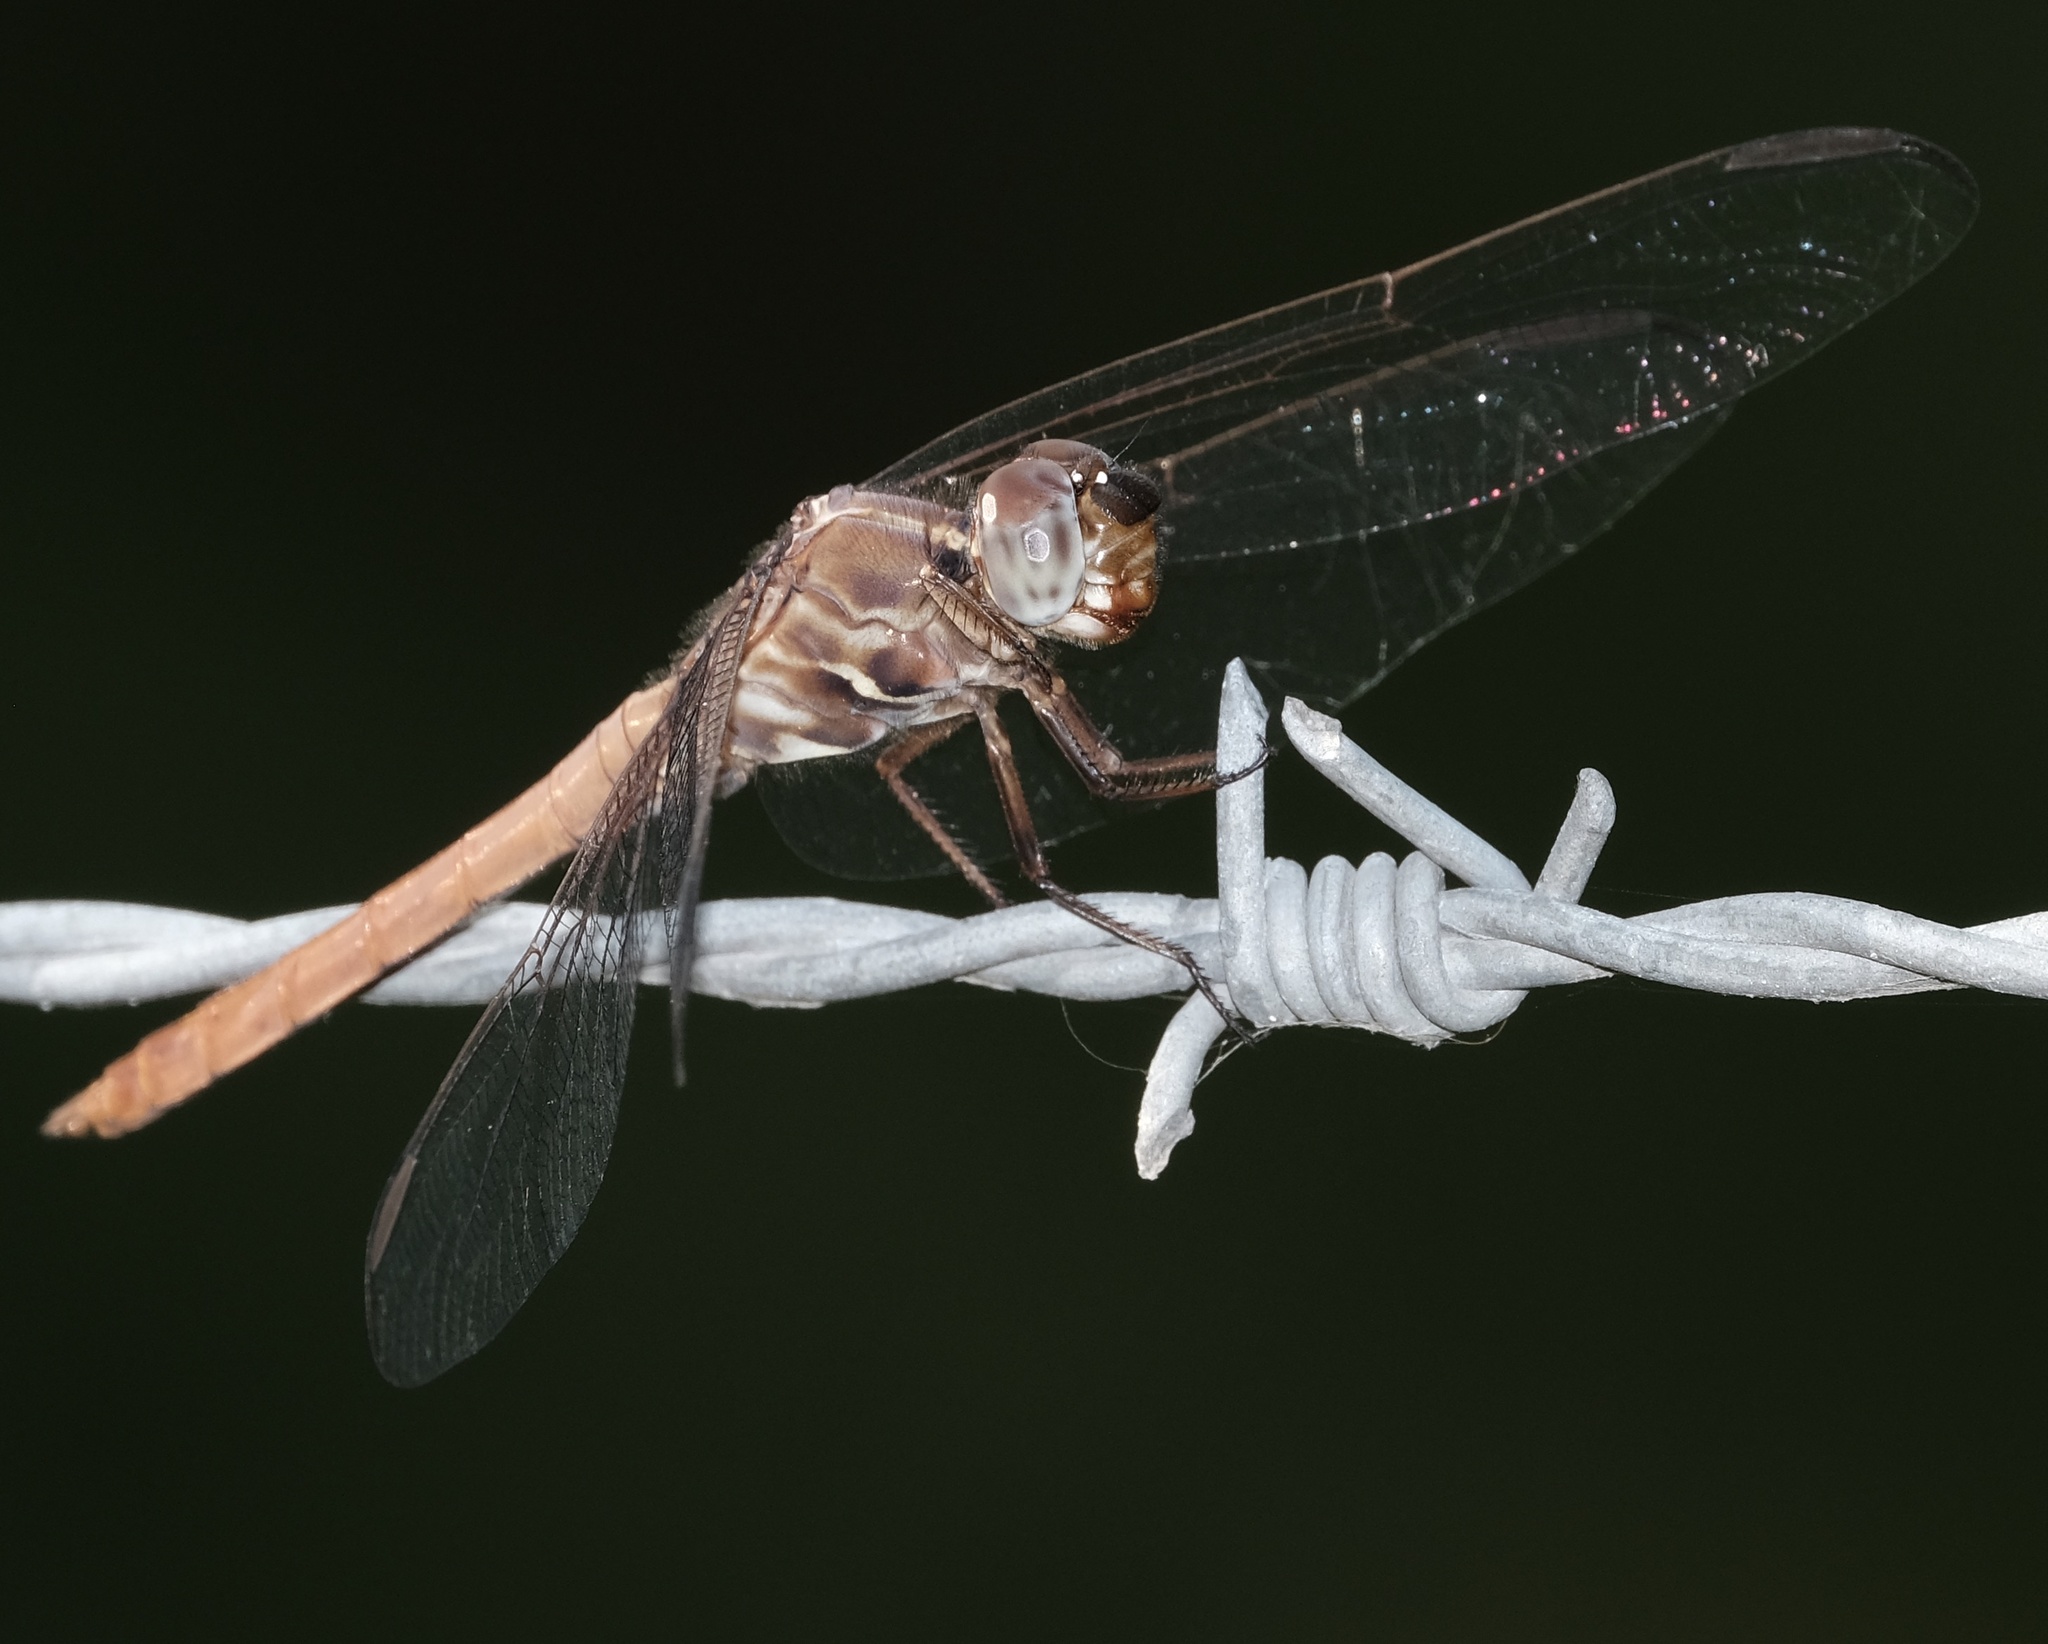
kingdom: Animalia
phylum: Arthropoda
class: Insecta
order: Odonata
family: Libellulidae
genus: Orthemis
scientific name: Orthemis ferruginea
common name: Roseate skimmer
